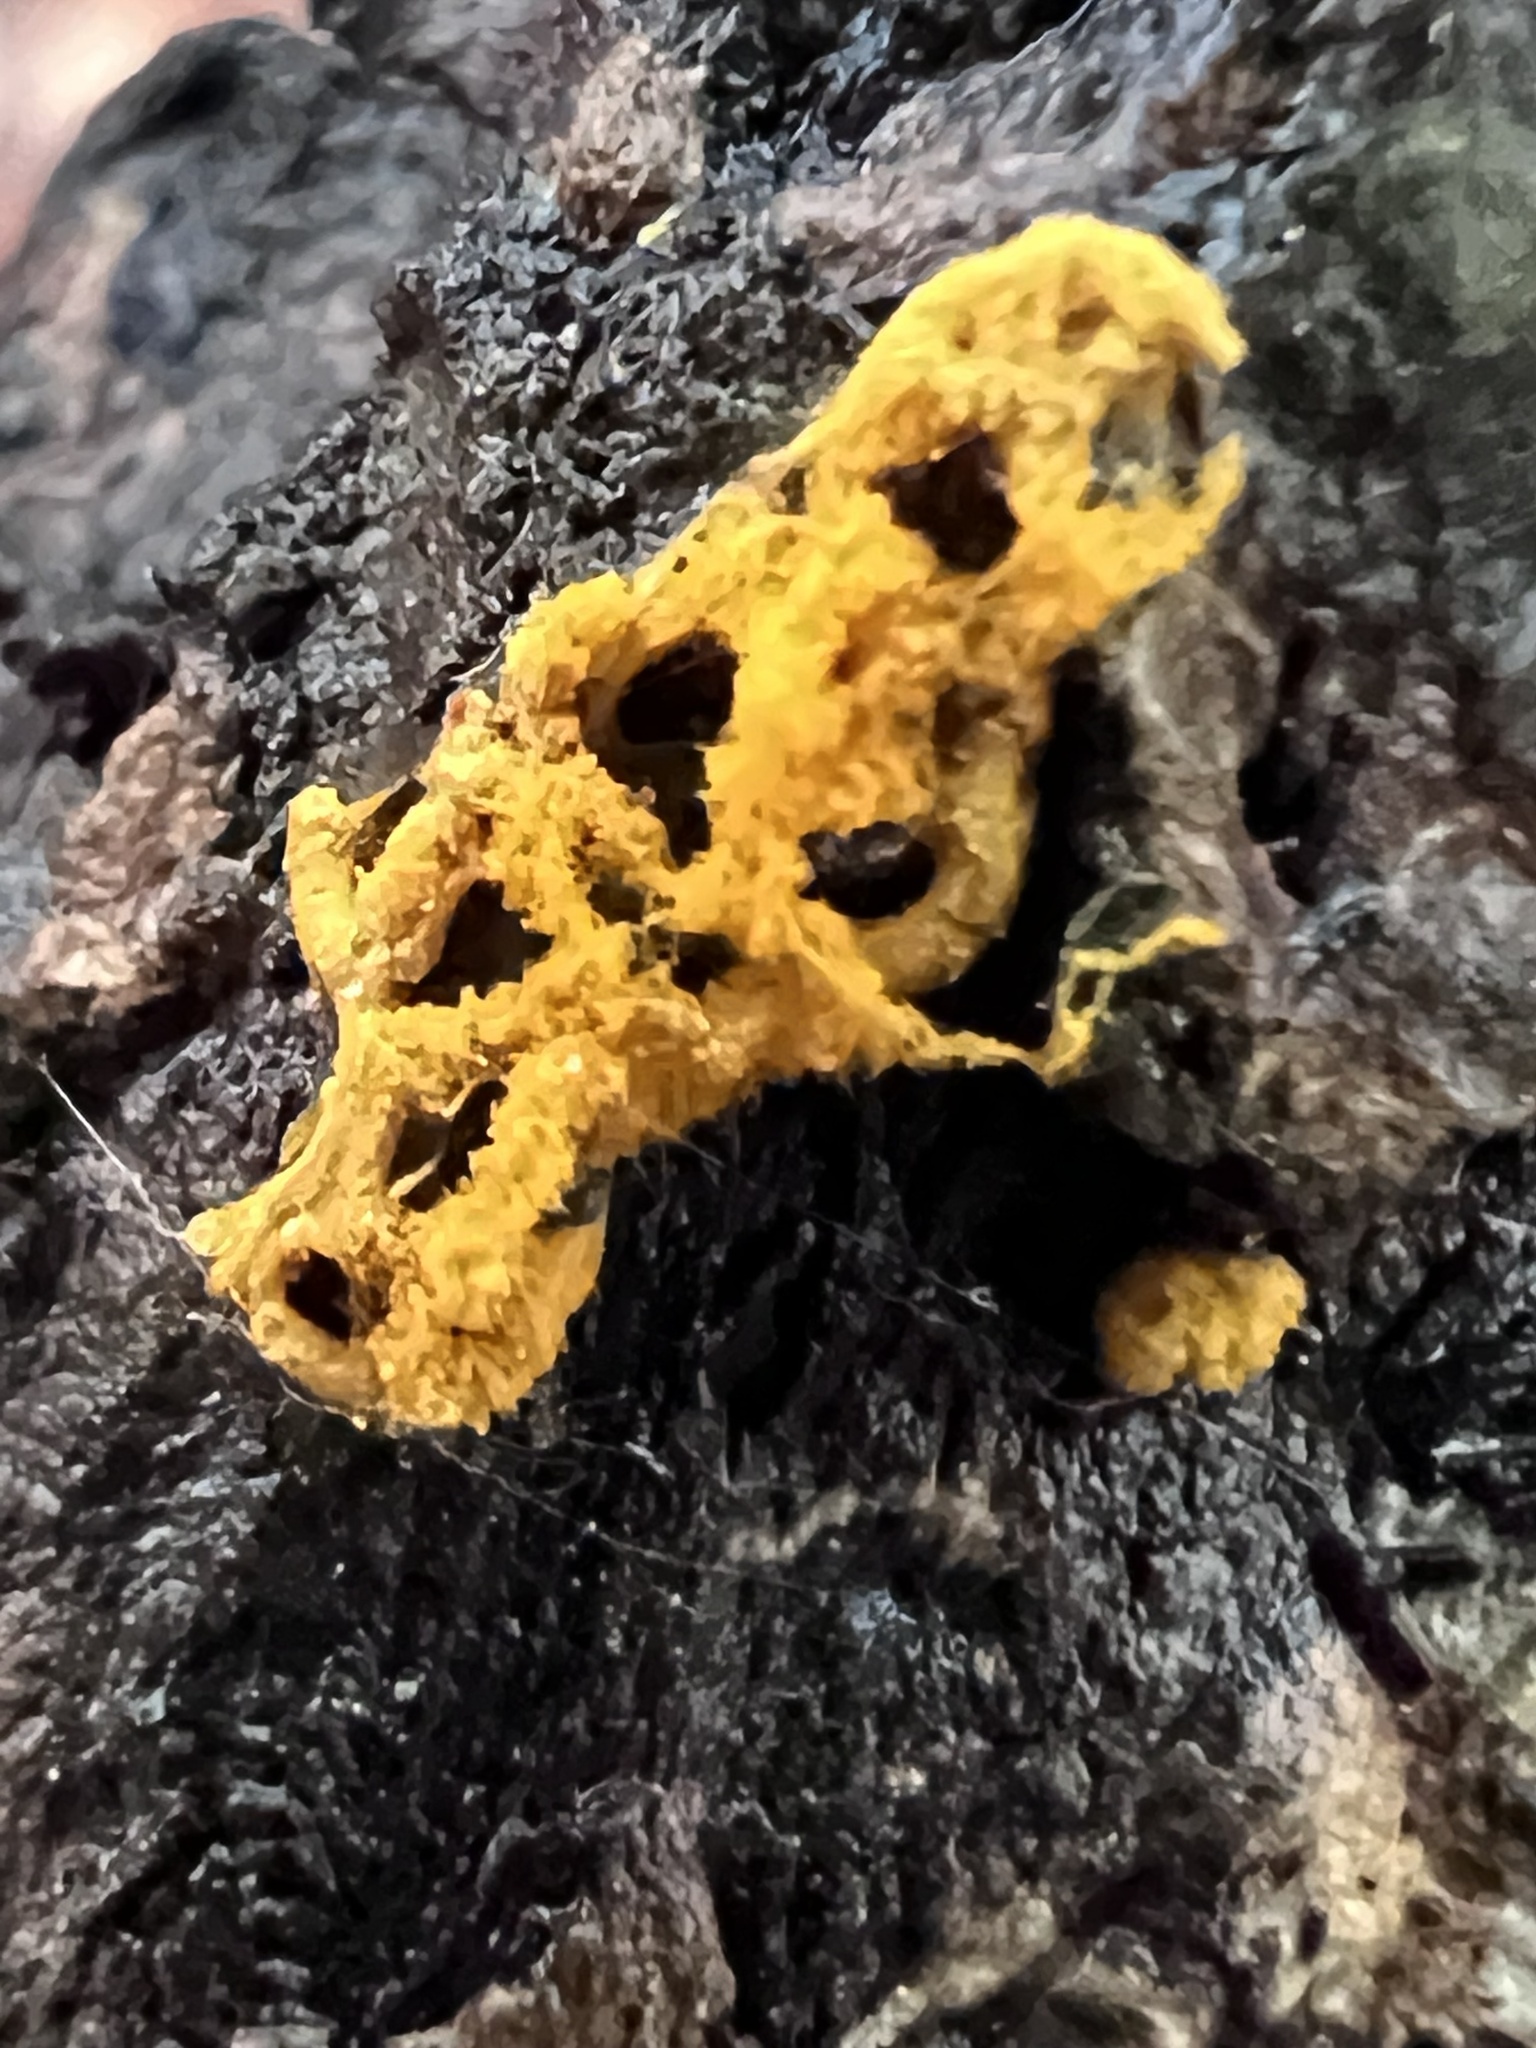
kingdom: Protozoa
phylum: Mycetozoa
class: Myxomycetes
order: Trichiales
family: Arcyriaceae
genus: Hemitrichia
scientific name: Hemitrichia serpula
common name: Pretzel slime mold
